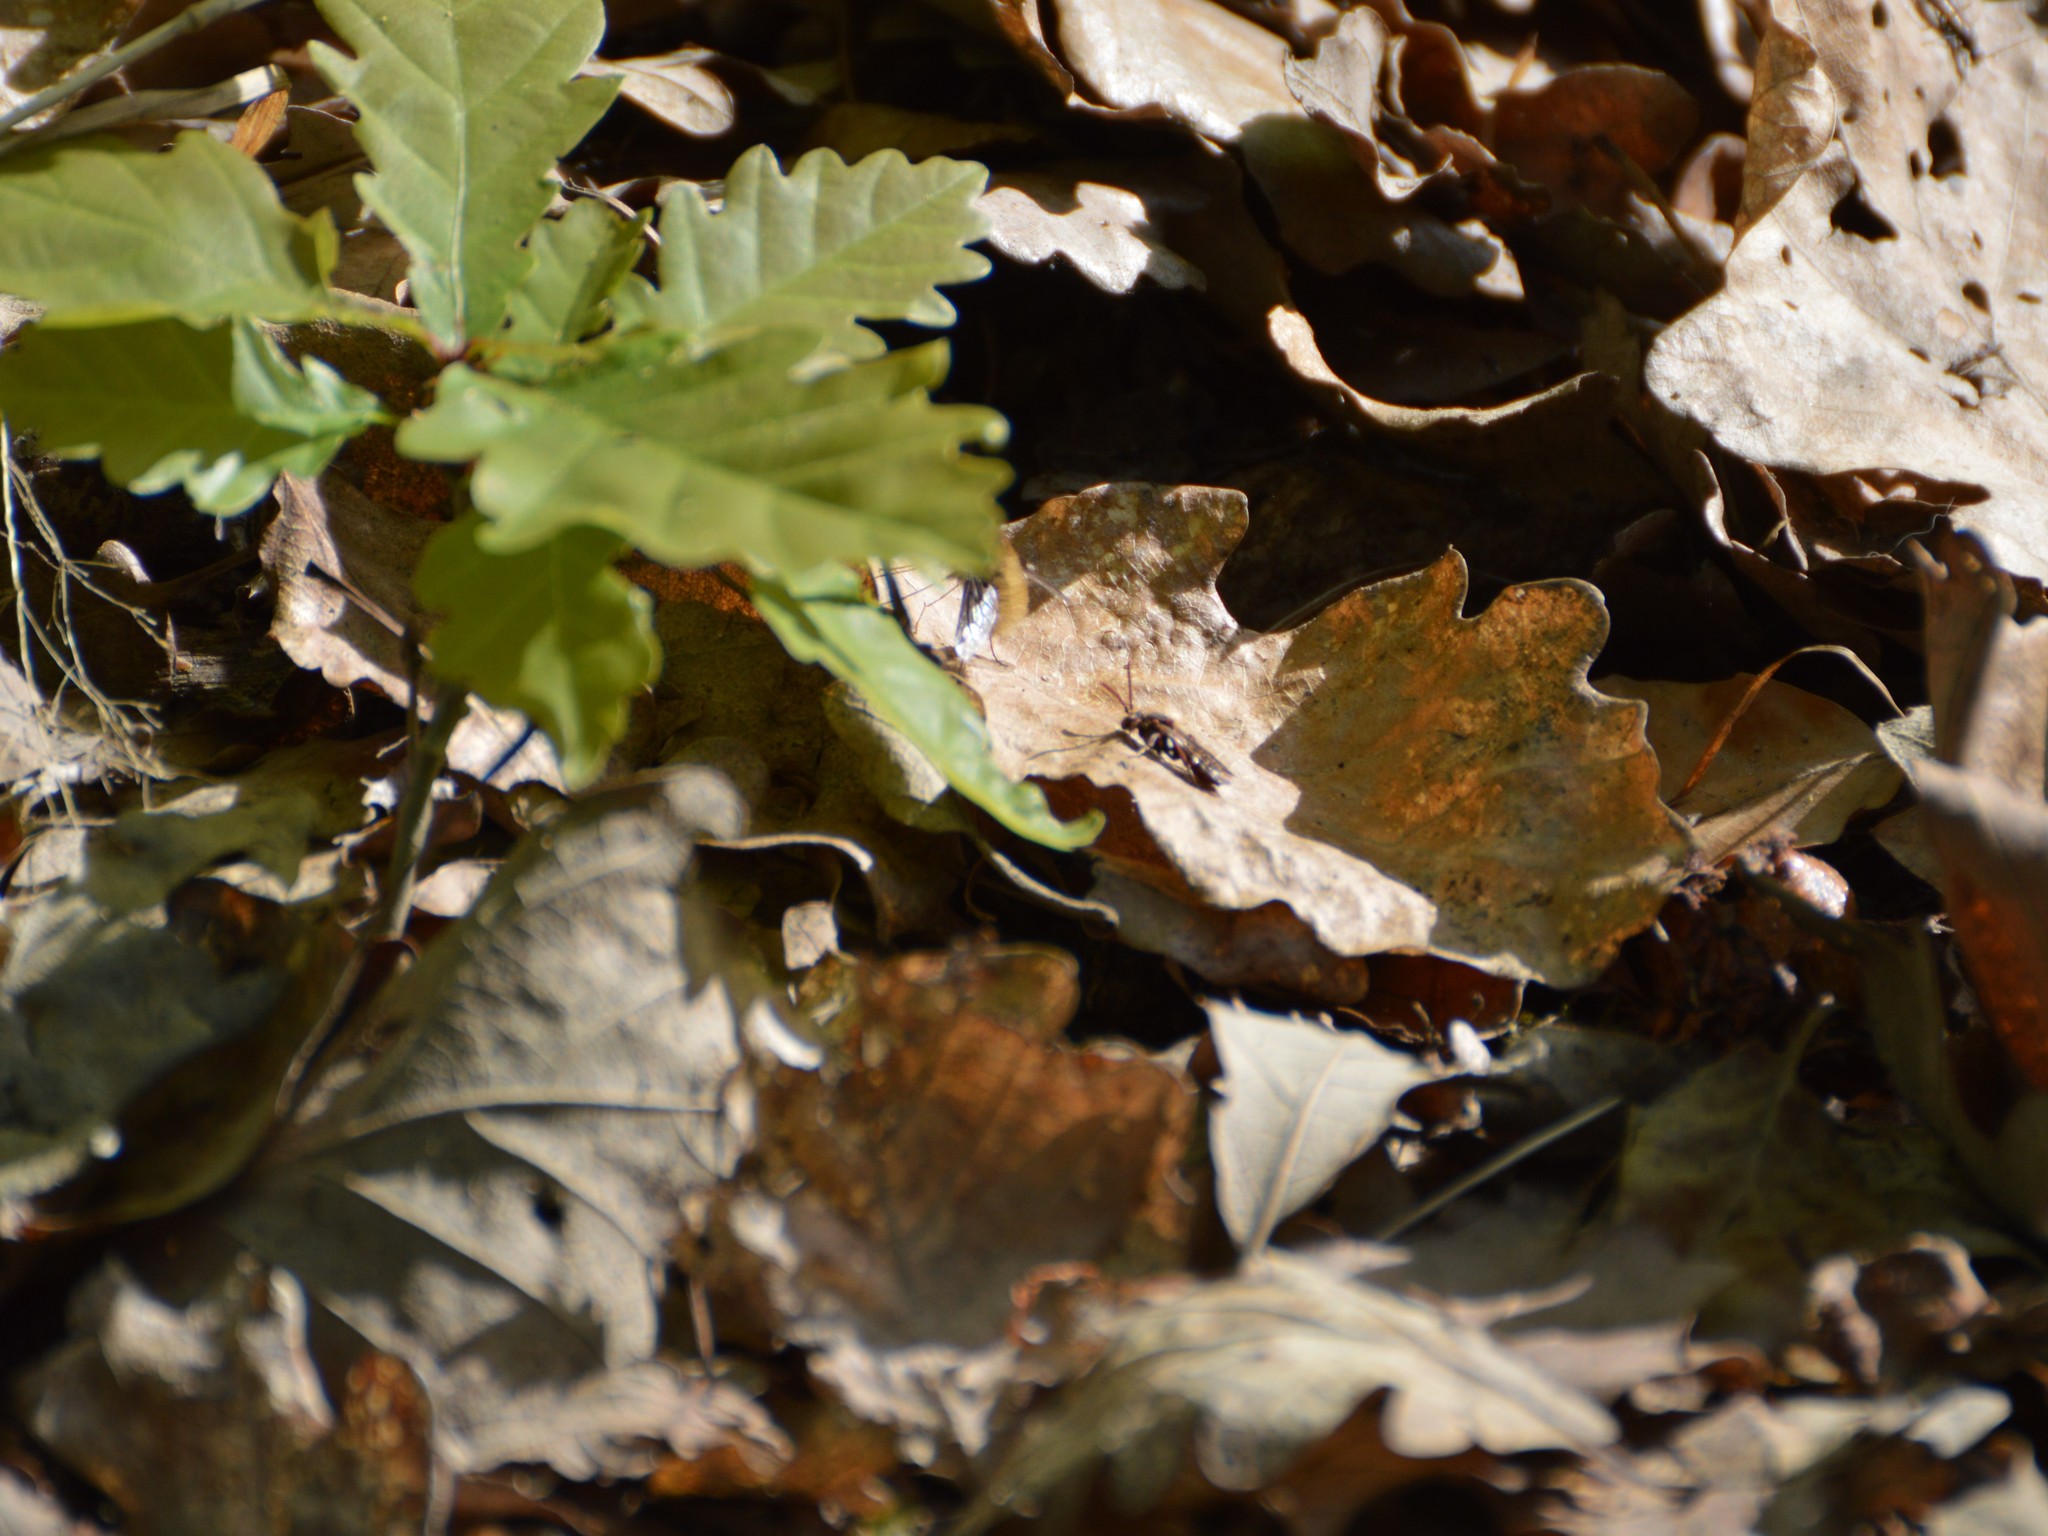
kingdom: Animalia
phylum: Arthropoda
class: Insecta
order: Hymenoptera
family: Apidae
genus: Nomada
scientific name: Nomada
